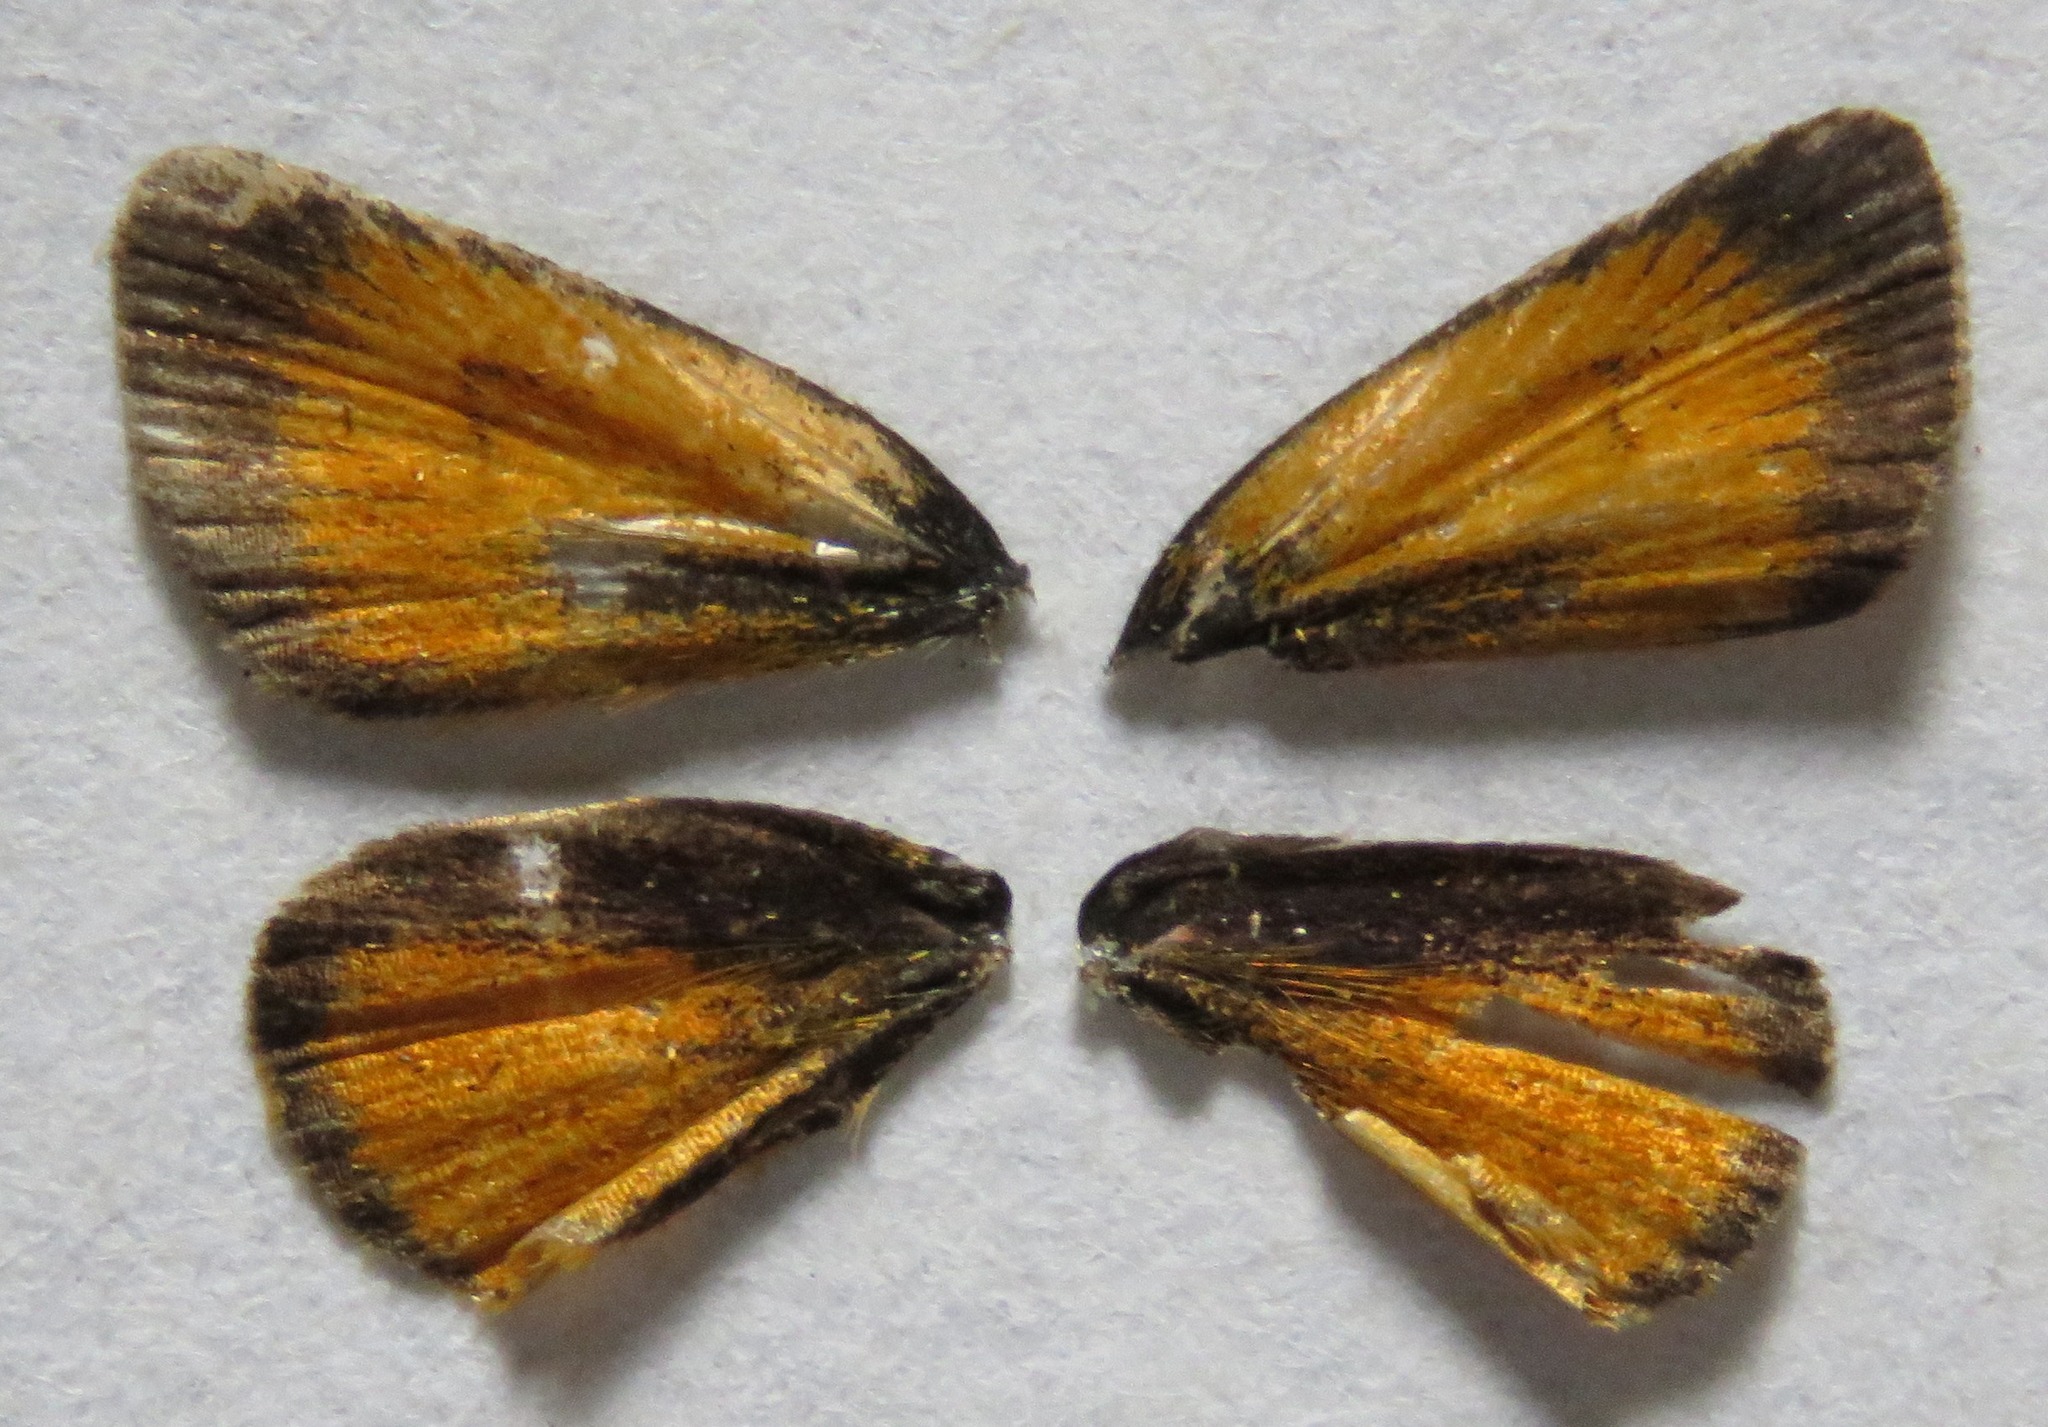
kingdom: Animalia
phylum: Arthropoda
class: Insecta
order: Lepidoptera
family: Hesperiidae
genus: Ancyloxypha
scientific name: Ancyloxypha arene
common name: Tropical least skipper
